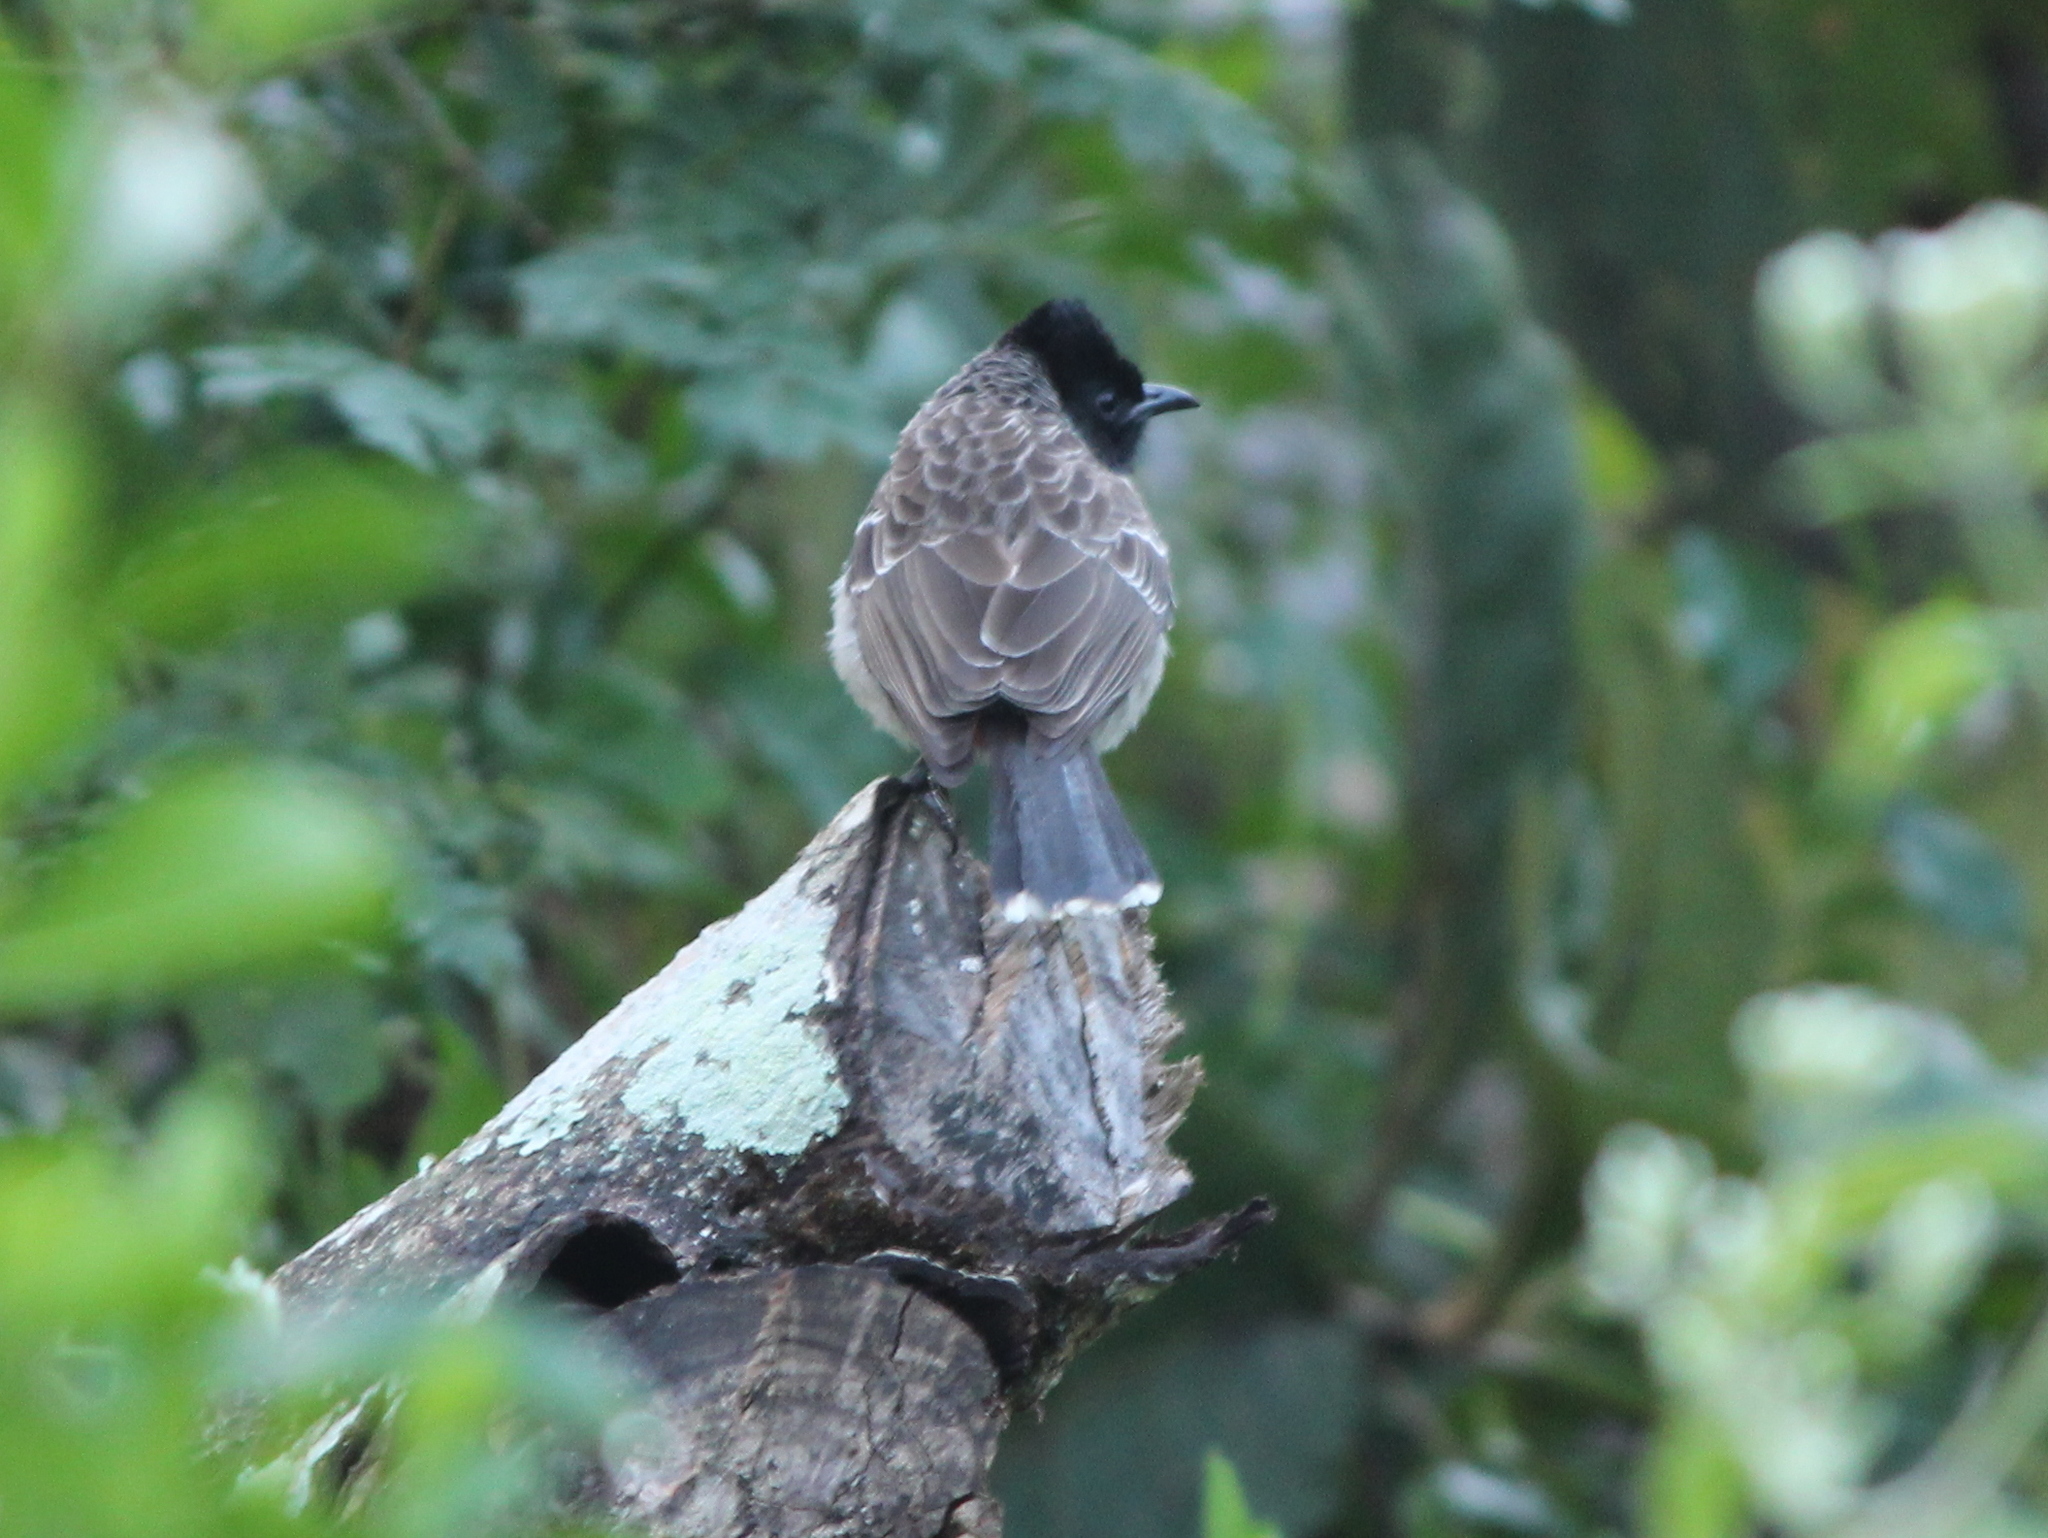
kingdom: Animalia
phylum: Chordata
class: Aves
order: Passeriformes
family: Pycnonotidae
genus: Pycnonotus
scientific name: Pycnonotus cafer
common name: Red-vented bulbul
